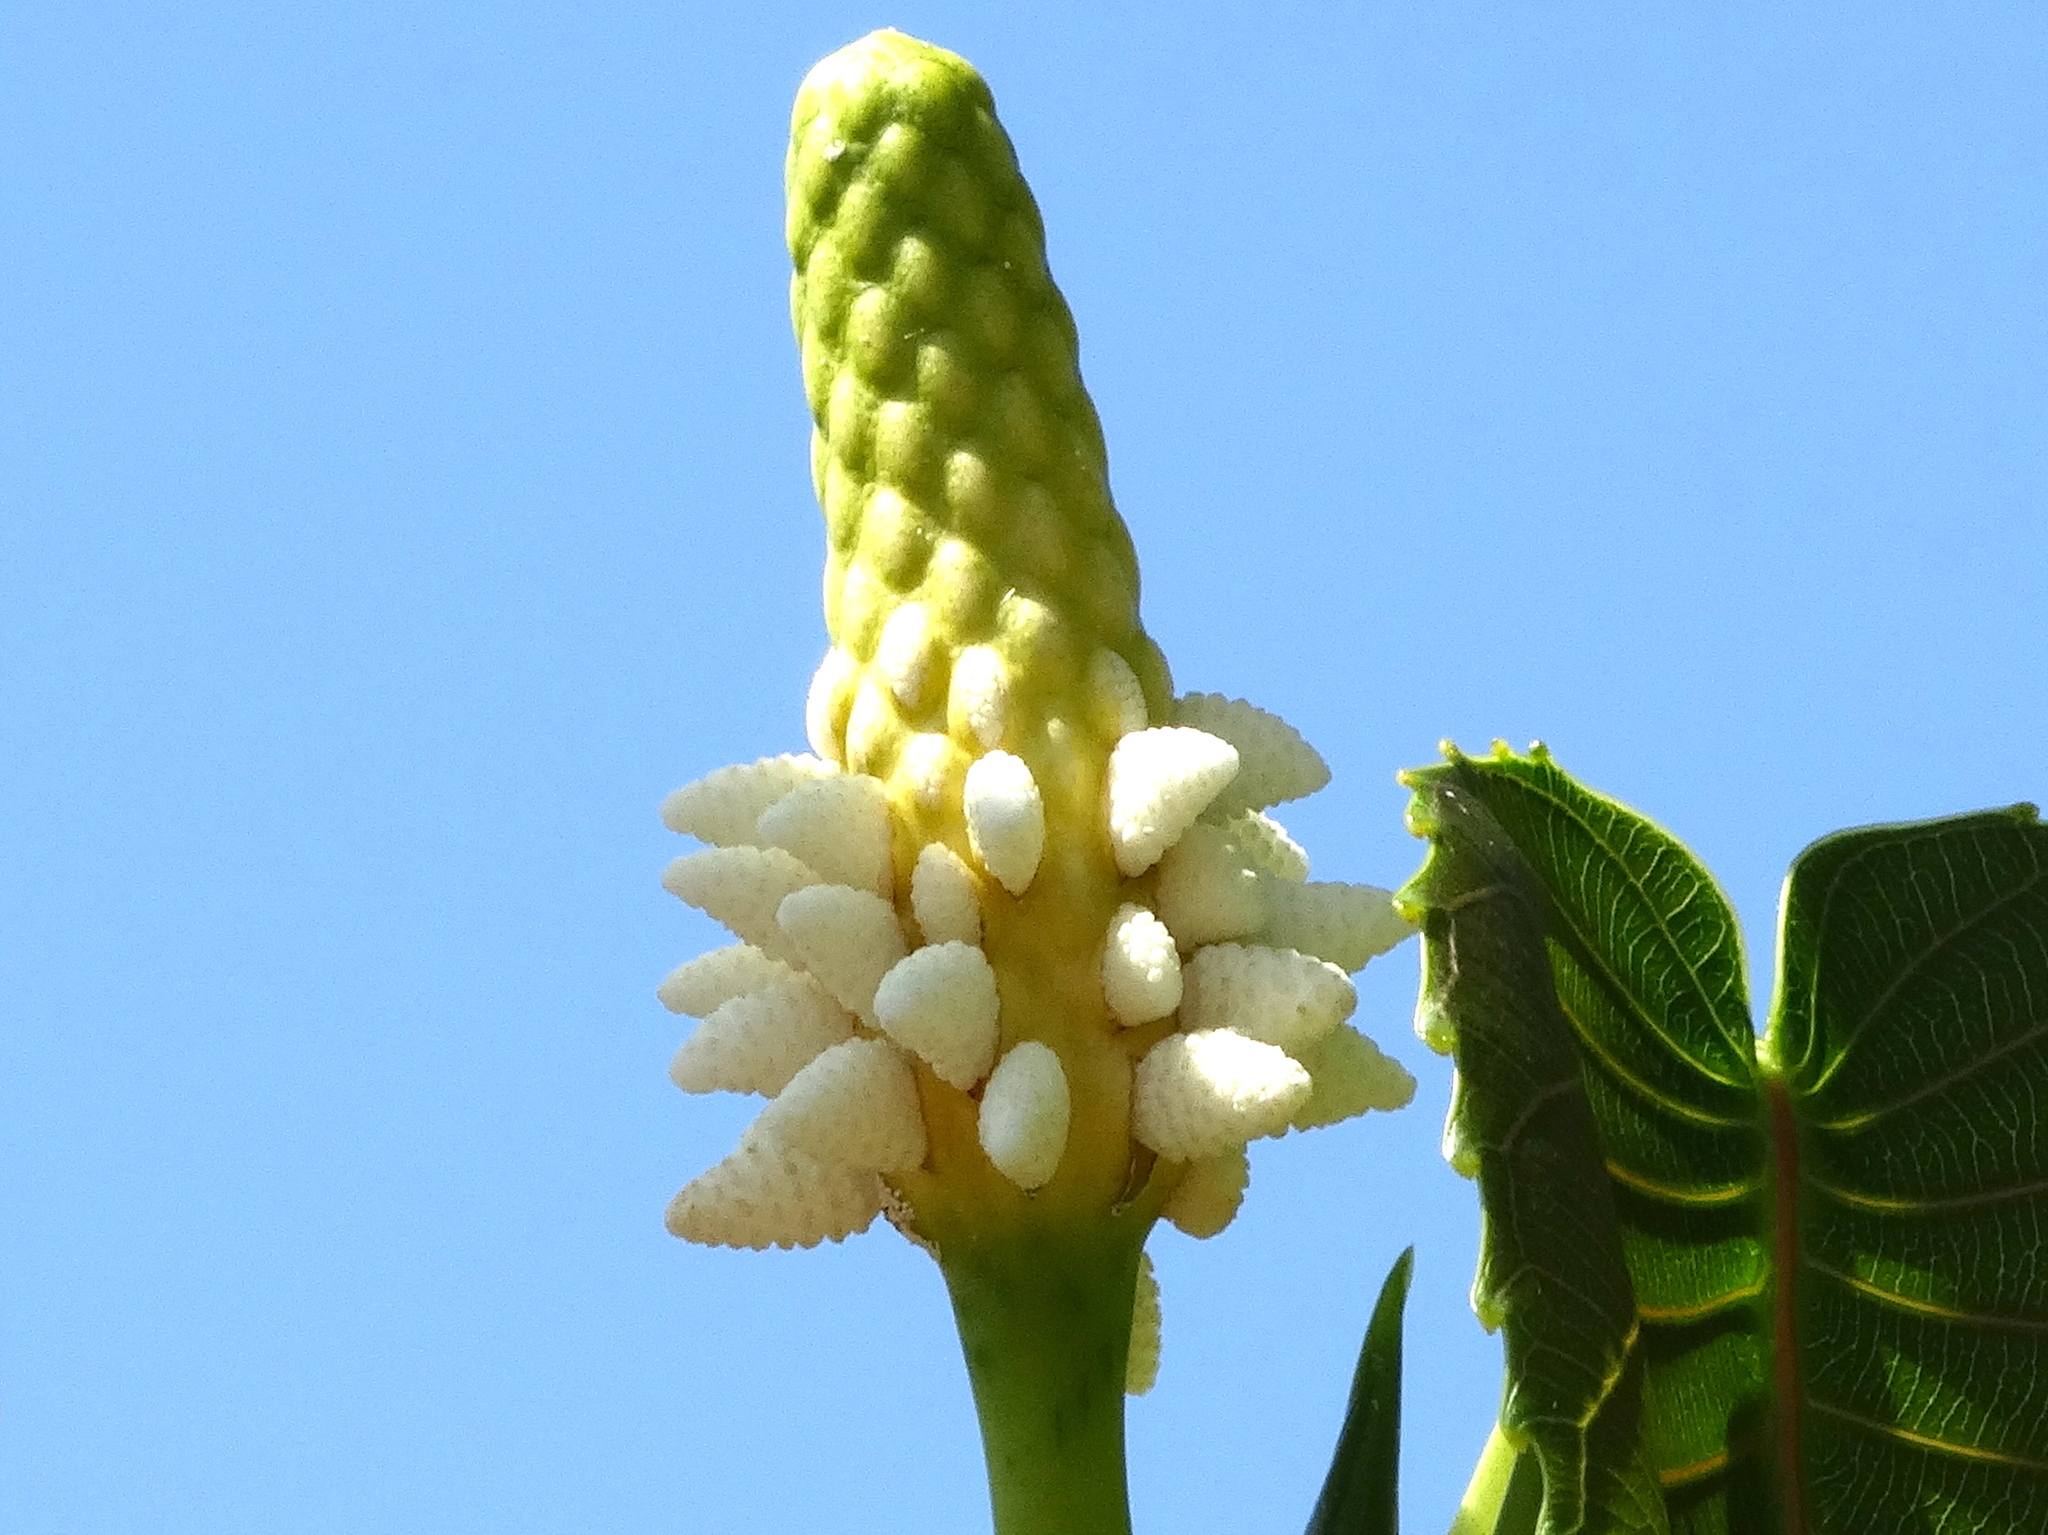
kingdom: Plantae
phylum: Tracheophyta
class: Magnoliopsida
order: Malpighiales
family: Euphorbiaceae
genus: Hura
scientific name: Hura polyandra
